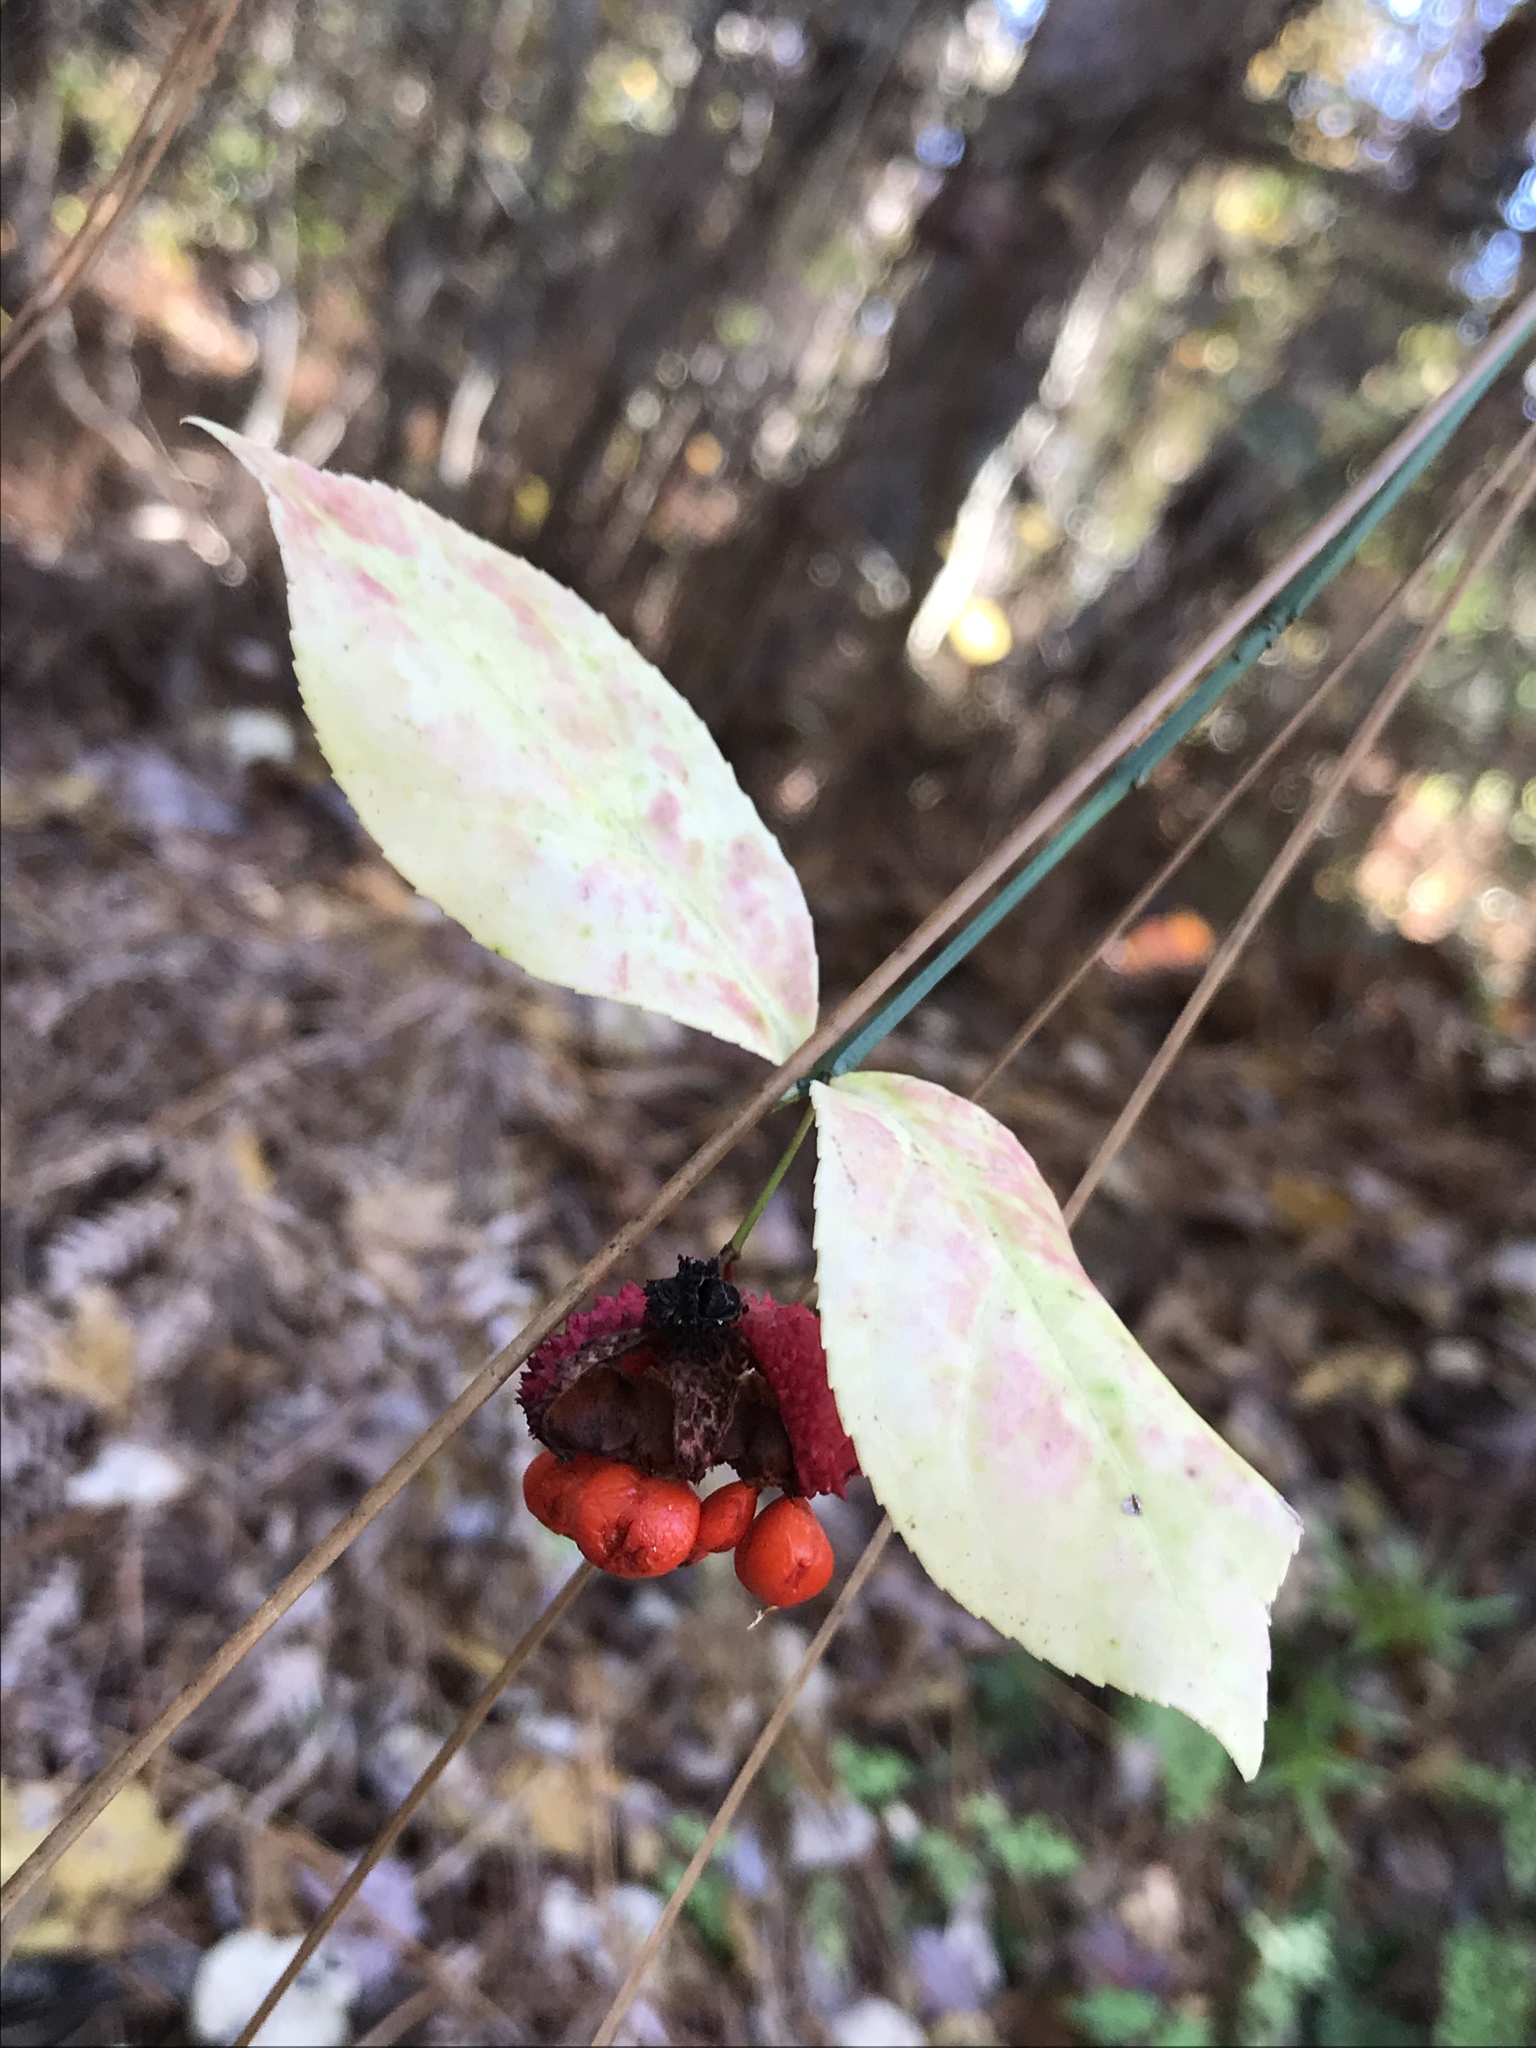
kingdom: Plantae
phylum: Tracheophyta
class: Magnoliopsida
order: Celastrales
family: Celastraceae
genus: Euonymus
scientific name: Euonymus americanus
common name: Bursting-heart
